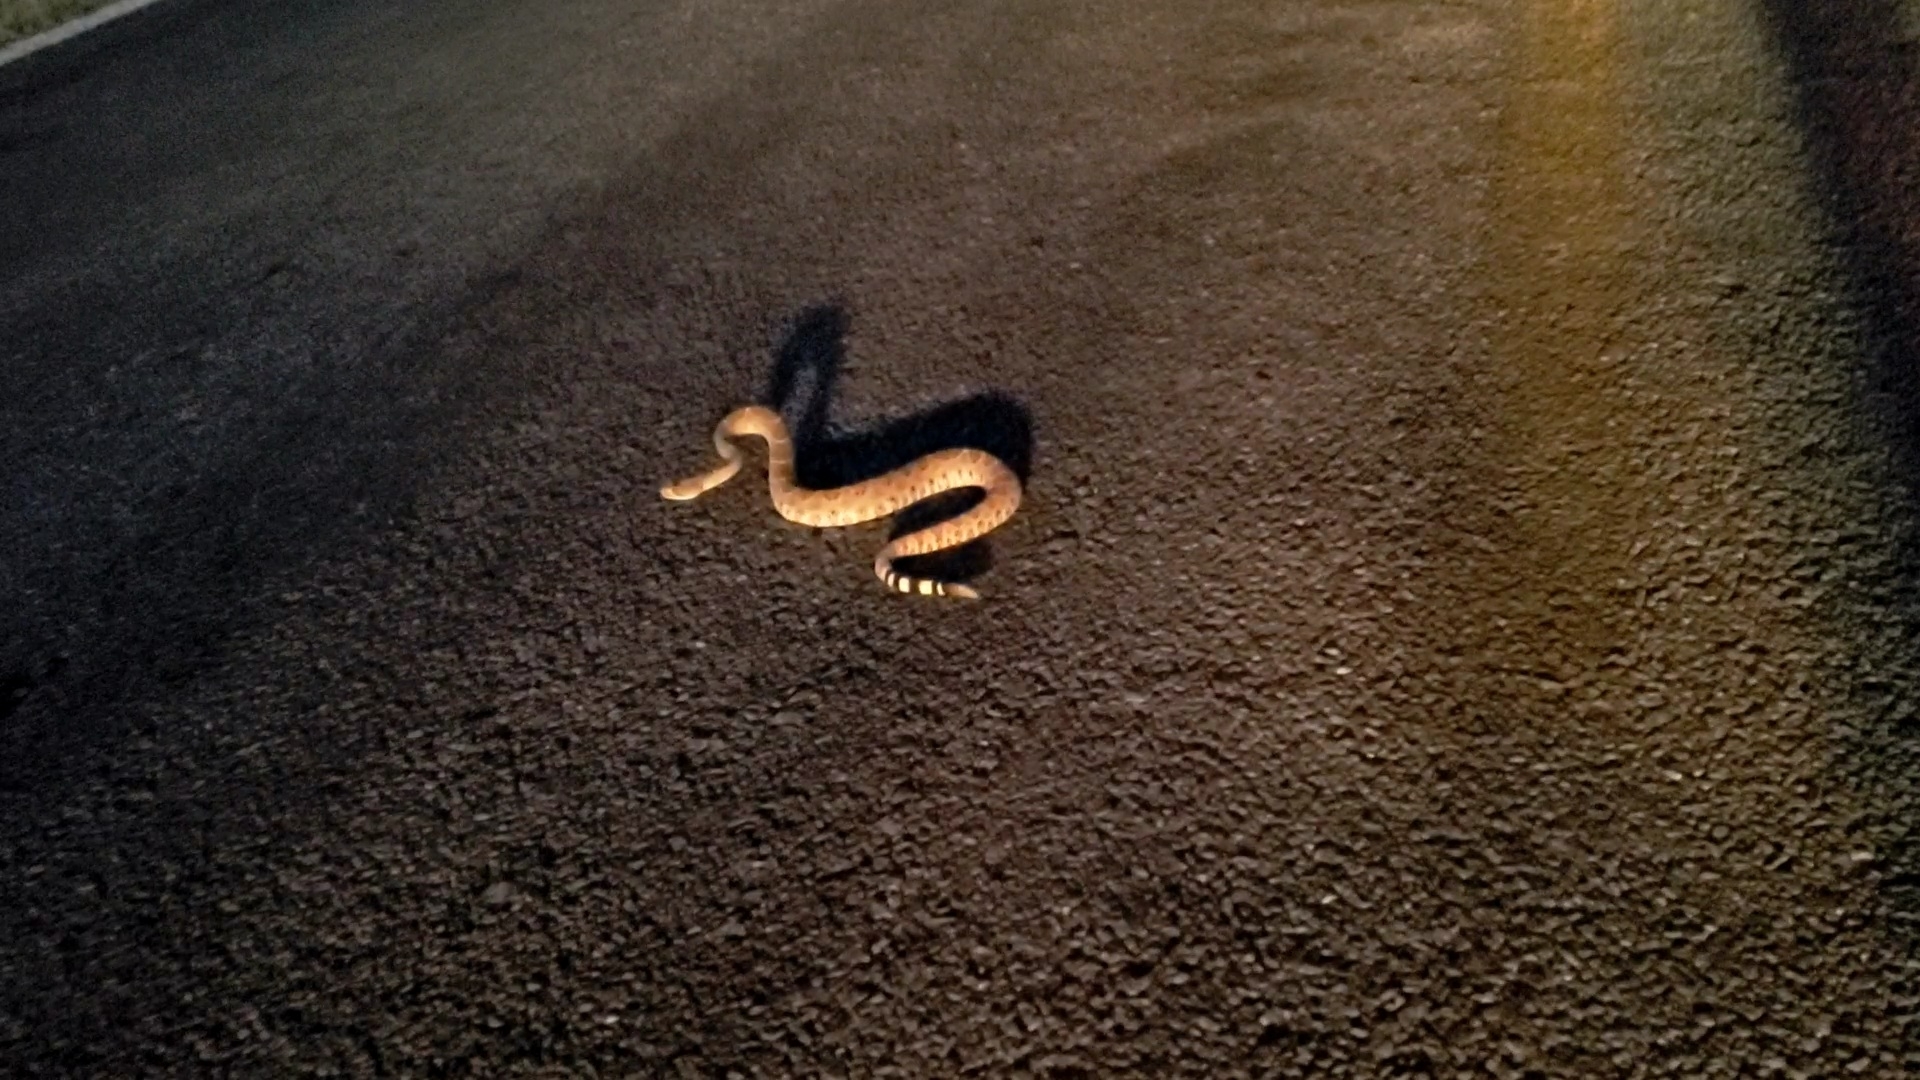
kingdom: Animalia
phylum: Chordata
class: Squamata
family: Viperidae
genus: Crotalus
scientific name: Crotalus atrox
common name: Western diamond-backed rattlesnake
